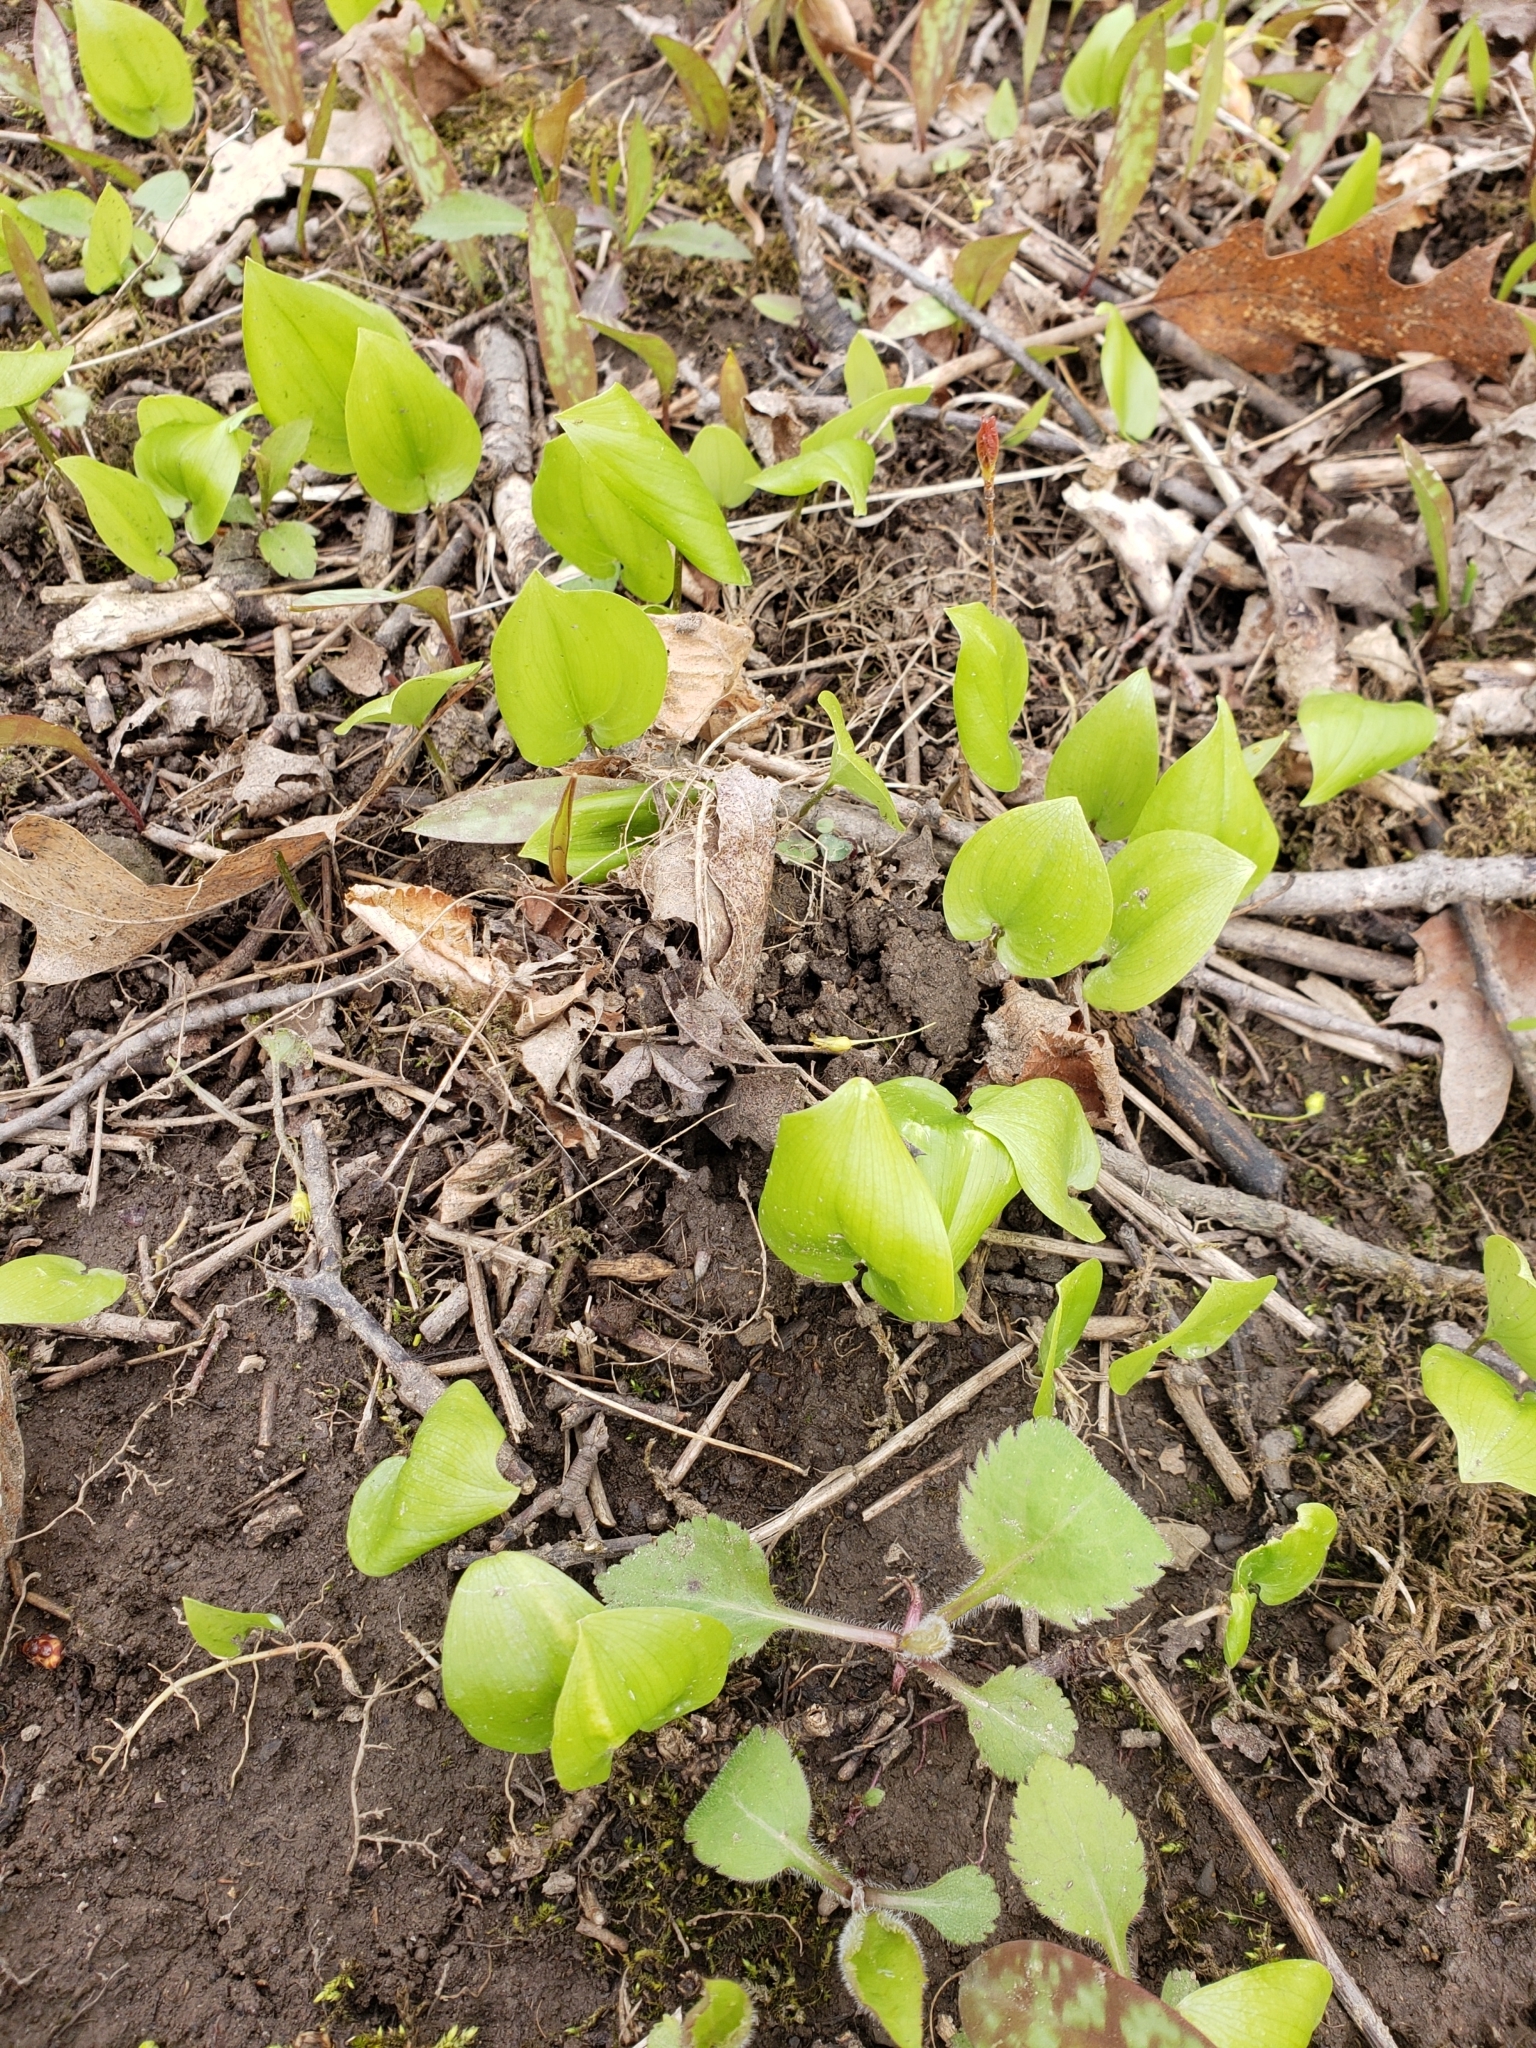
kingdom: Plantae
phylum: Tracheophyta
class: Liliopsida
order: Asparagales
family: Asparagaceae
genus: Maianthemum
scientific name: Maianthemum canadense
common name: False lily-of-the-valley
